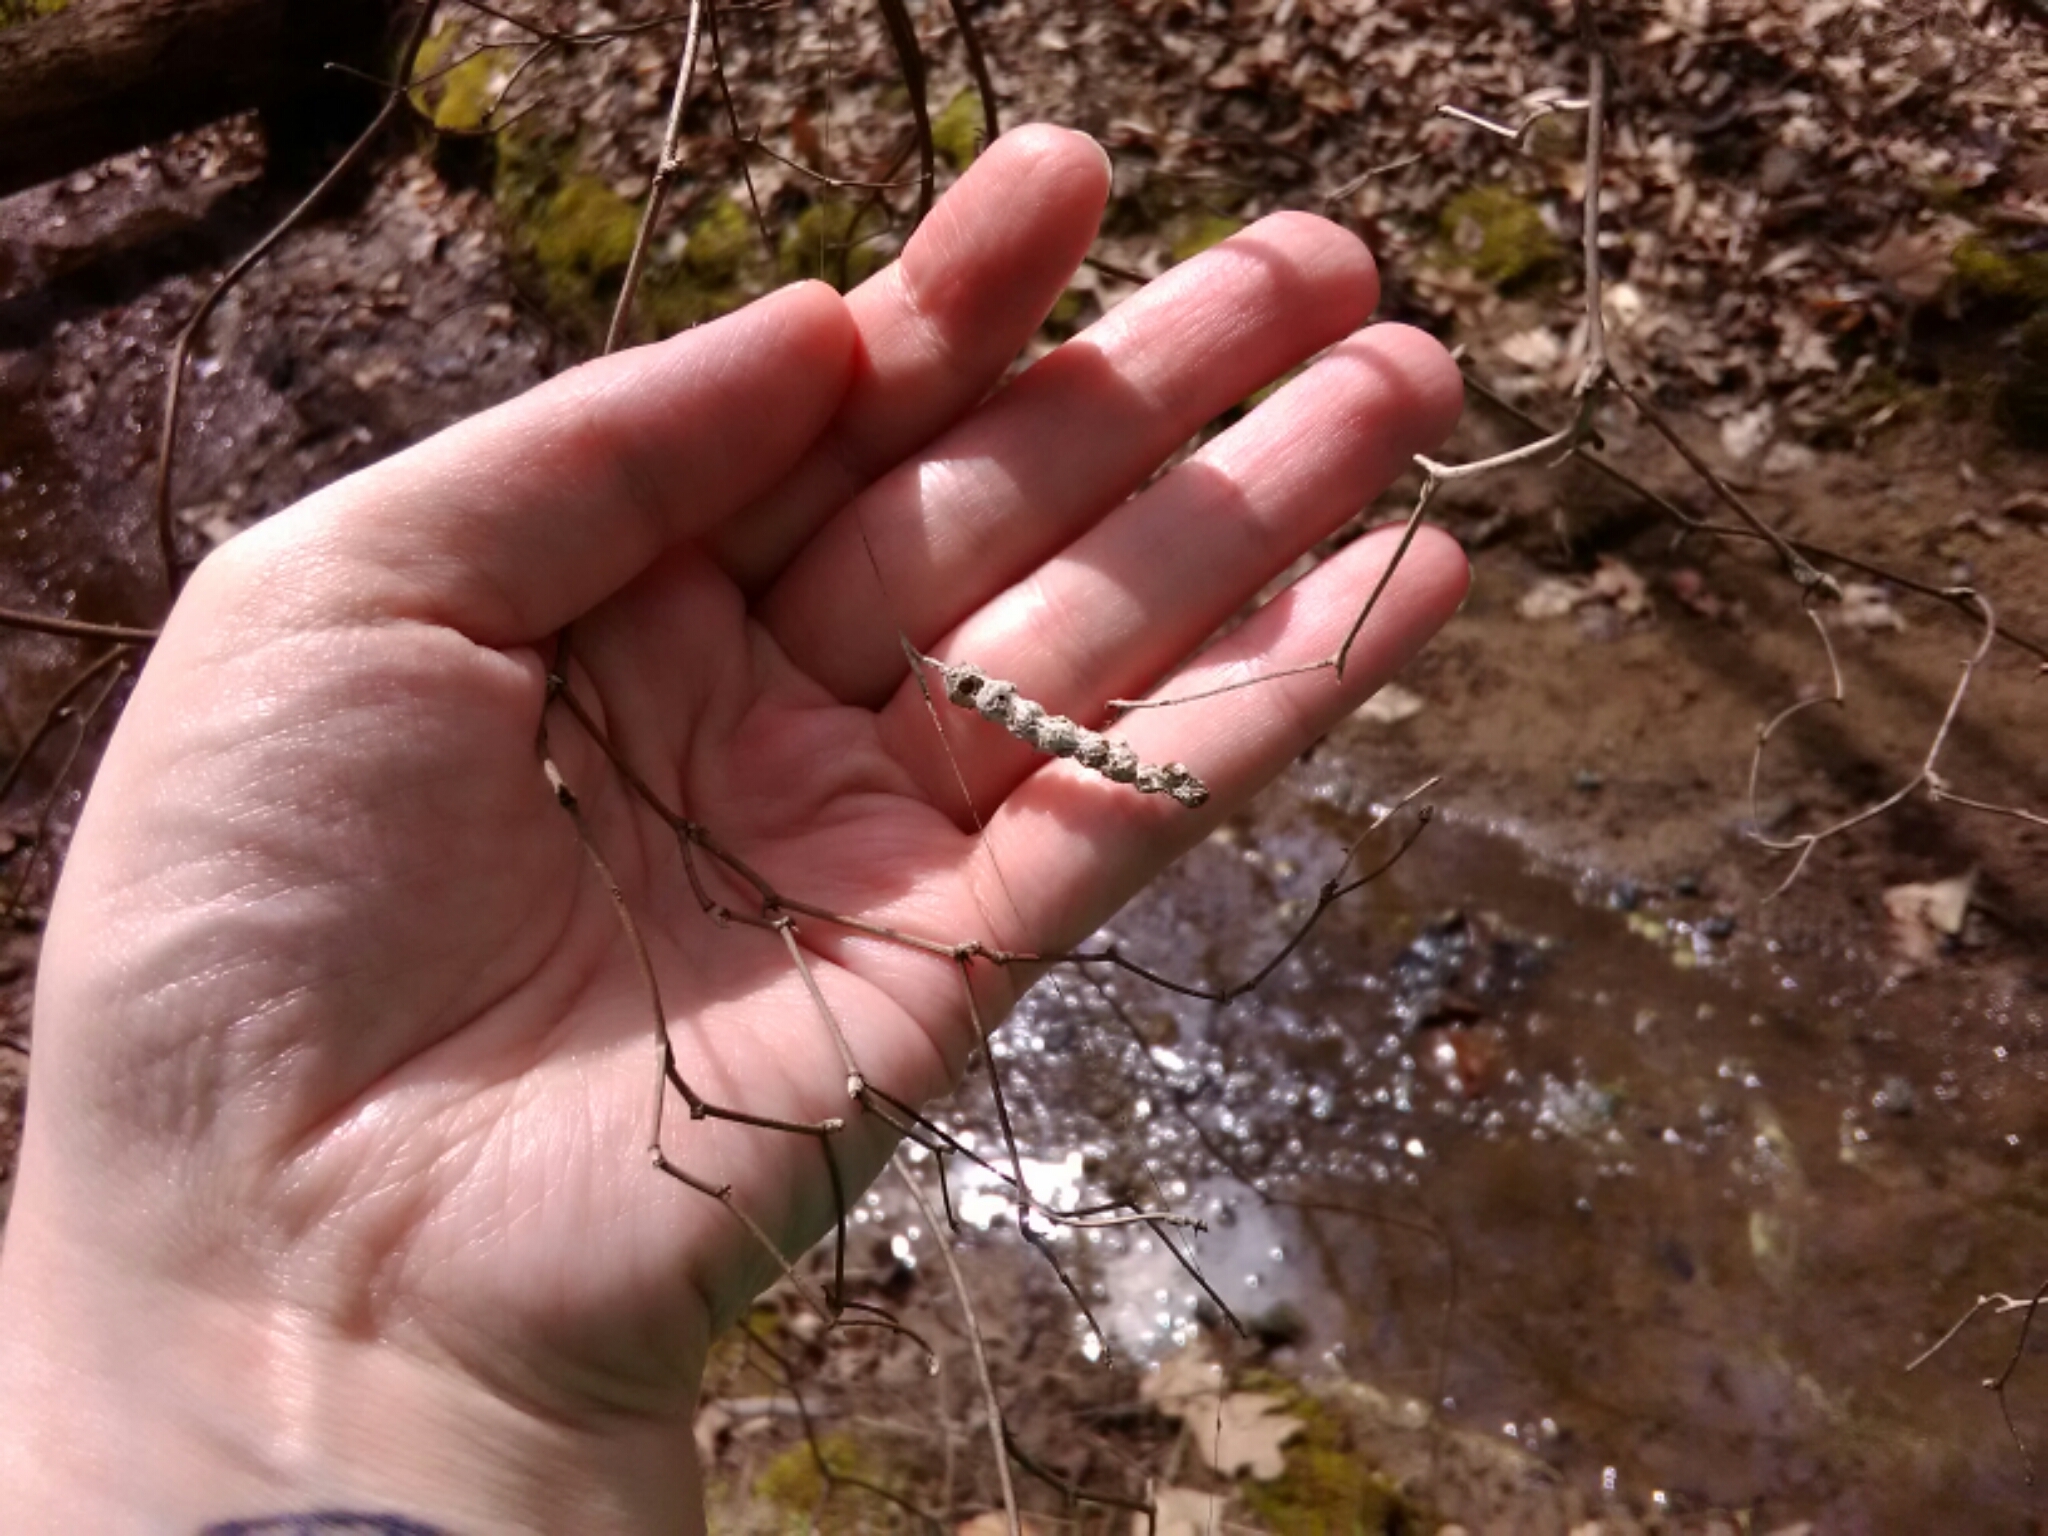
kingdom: Animalia
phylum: Arthropoda
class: Arachnida
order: Araneae
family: Araneidae
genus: Mecynogea
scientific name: Mecynogea lemniscata
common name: Orb weavers
